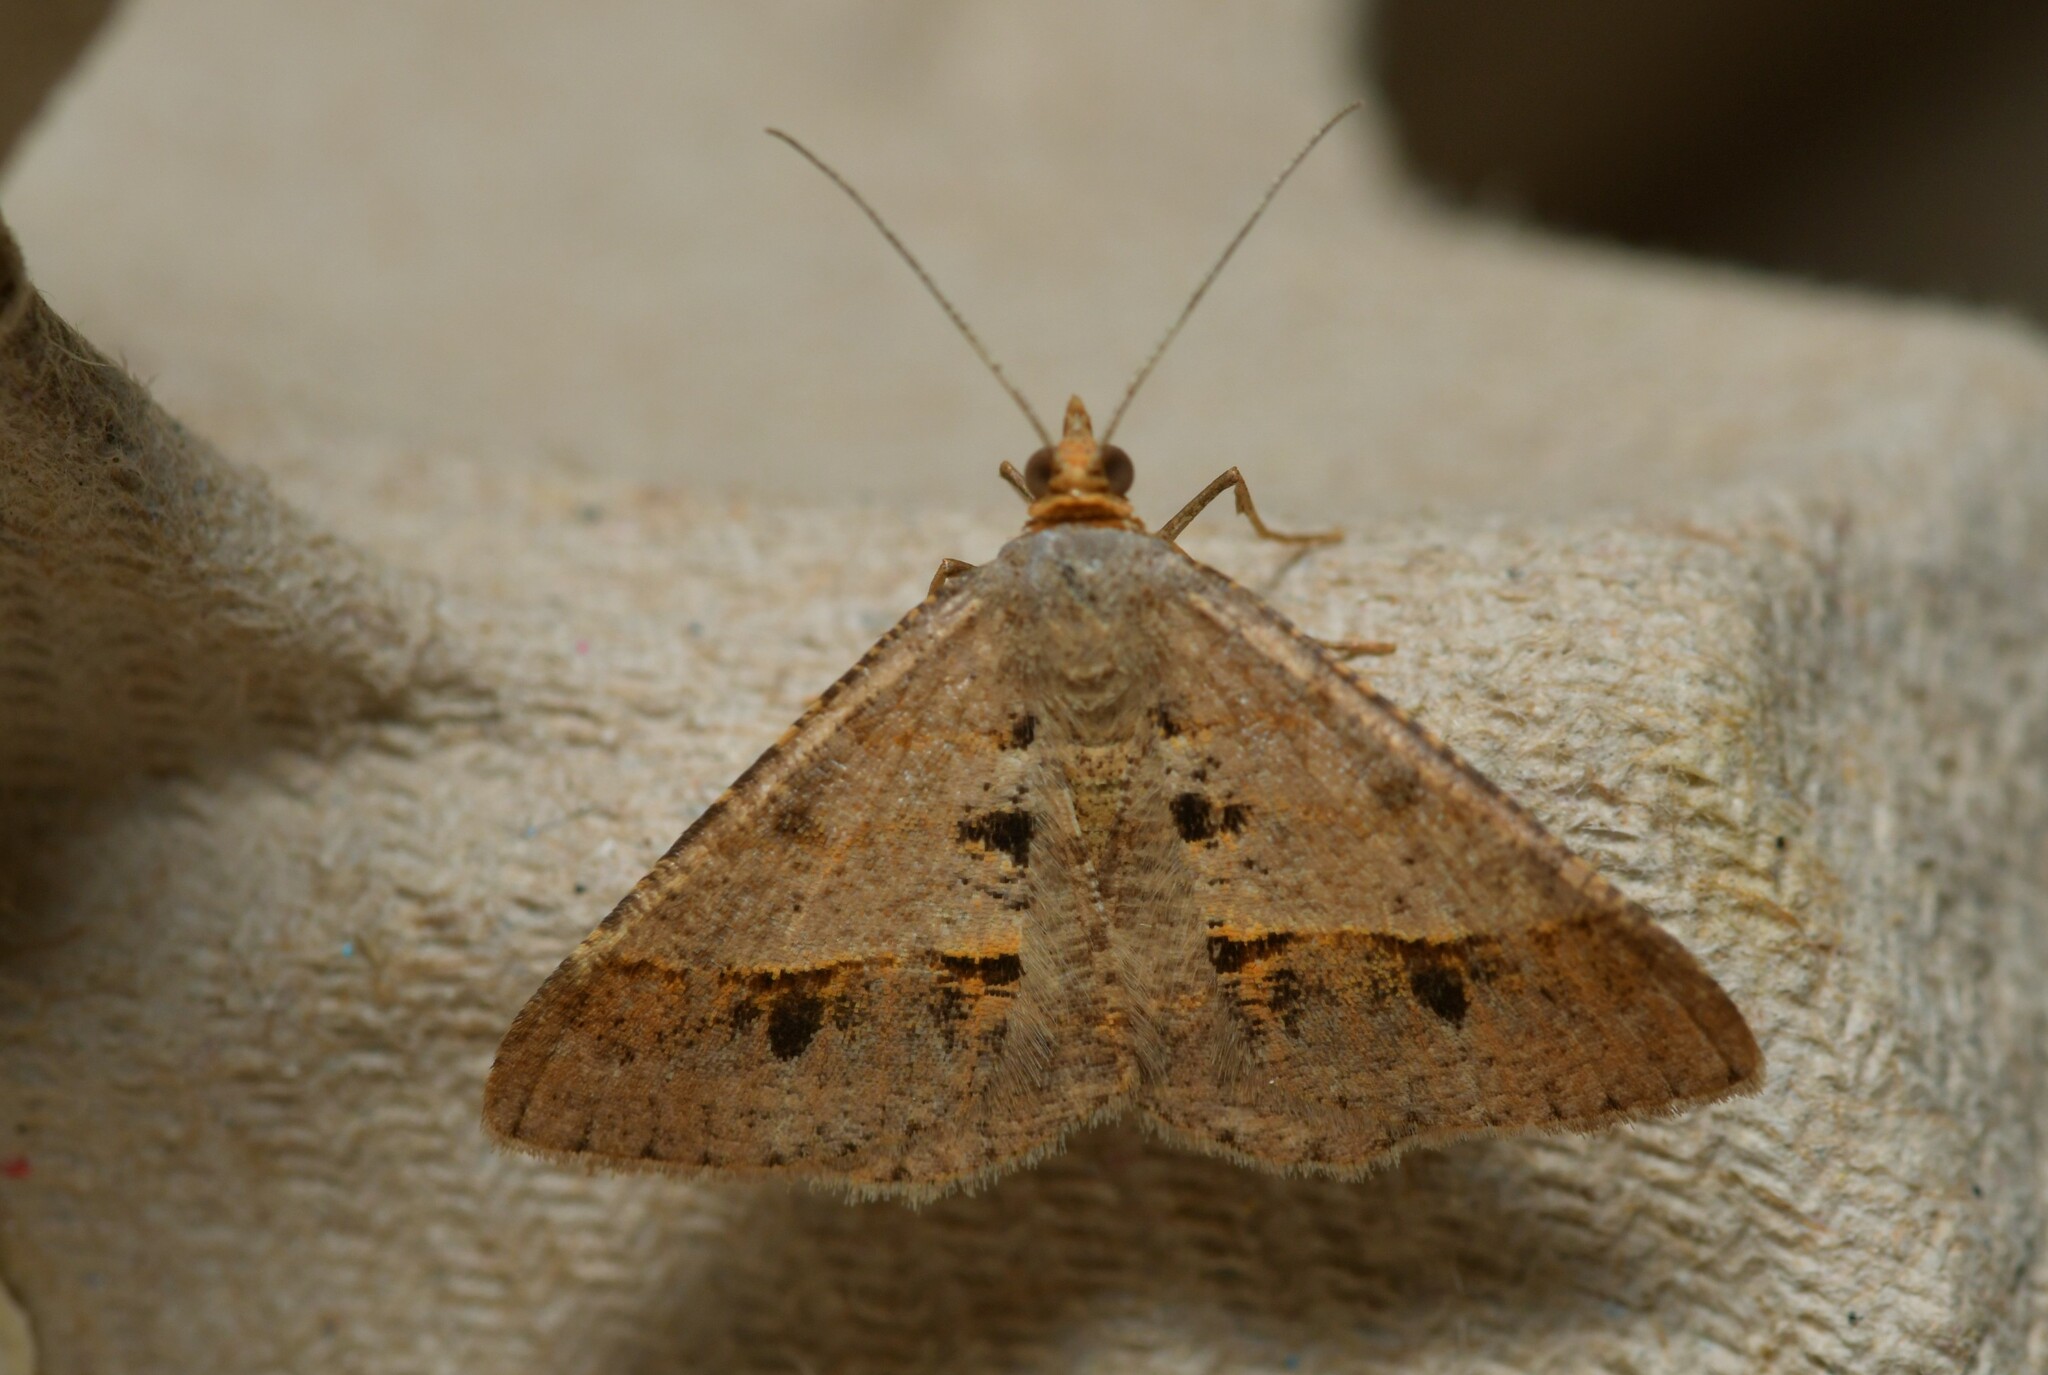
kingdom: Animalia
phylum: Arthropoda
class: Insecta
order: Lepidoptera
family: Geometridae
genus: Isturgia
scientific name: Isturgia deerraria
